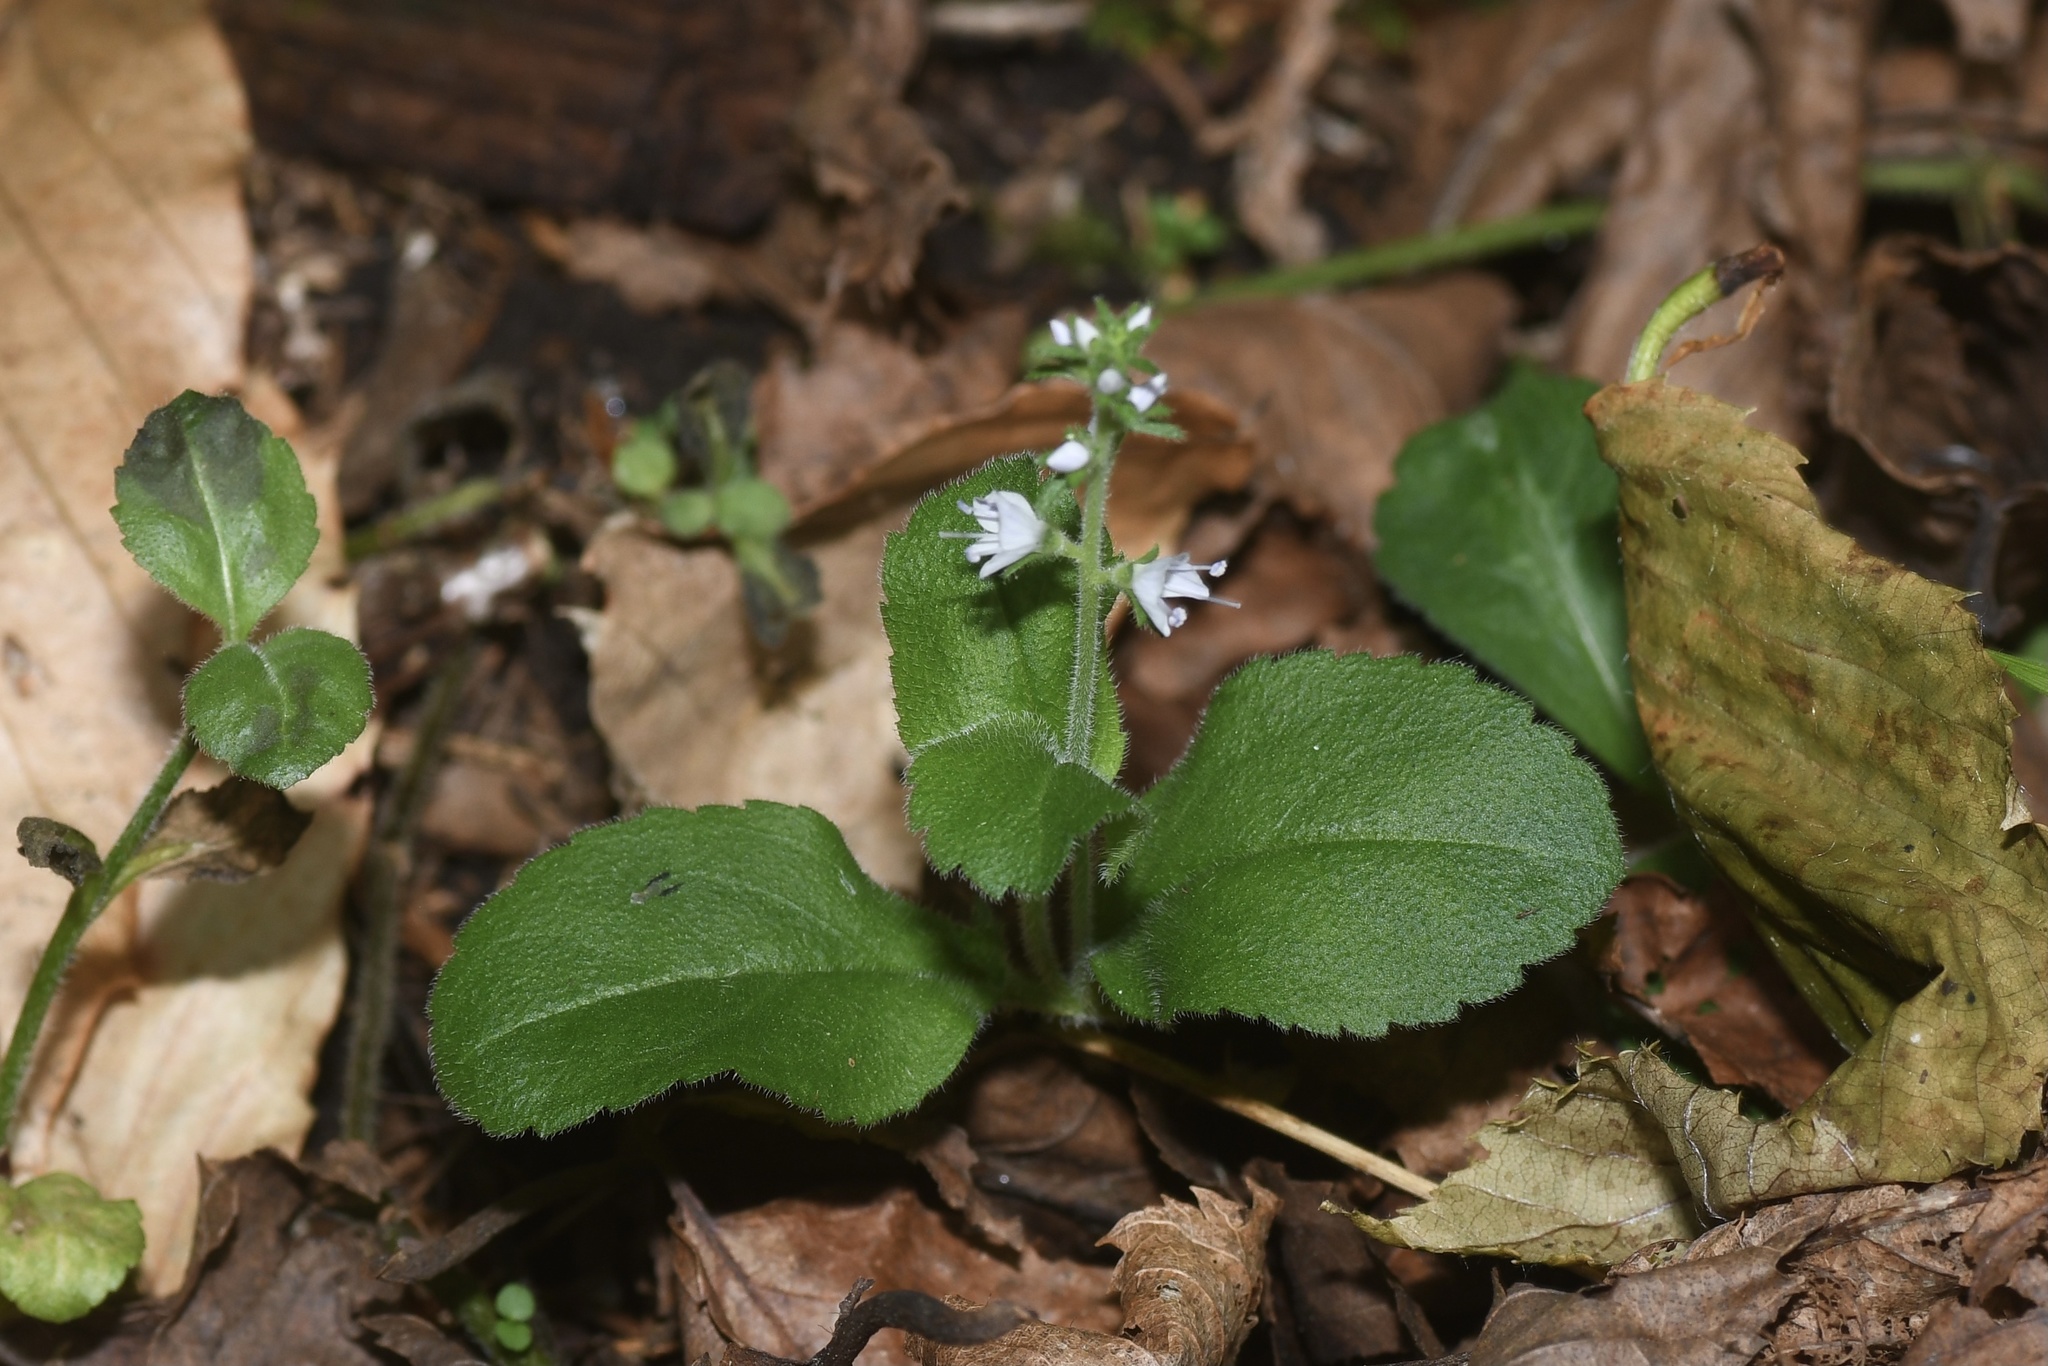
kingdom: Plantae
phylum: Tracheophyta
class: Magnoliopsida
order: Lamiales
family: Plantaginaceae
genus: Veronica
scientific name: Veronica officinalis
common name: Common speedwell
